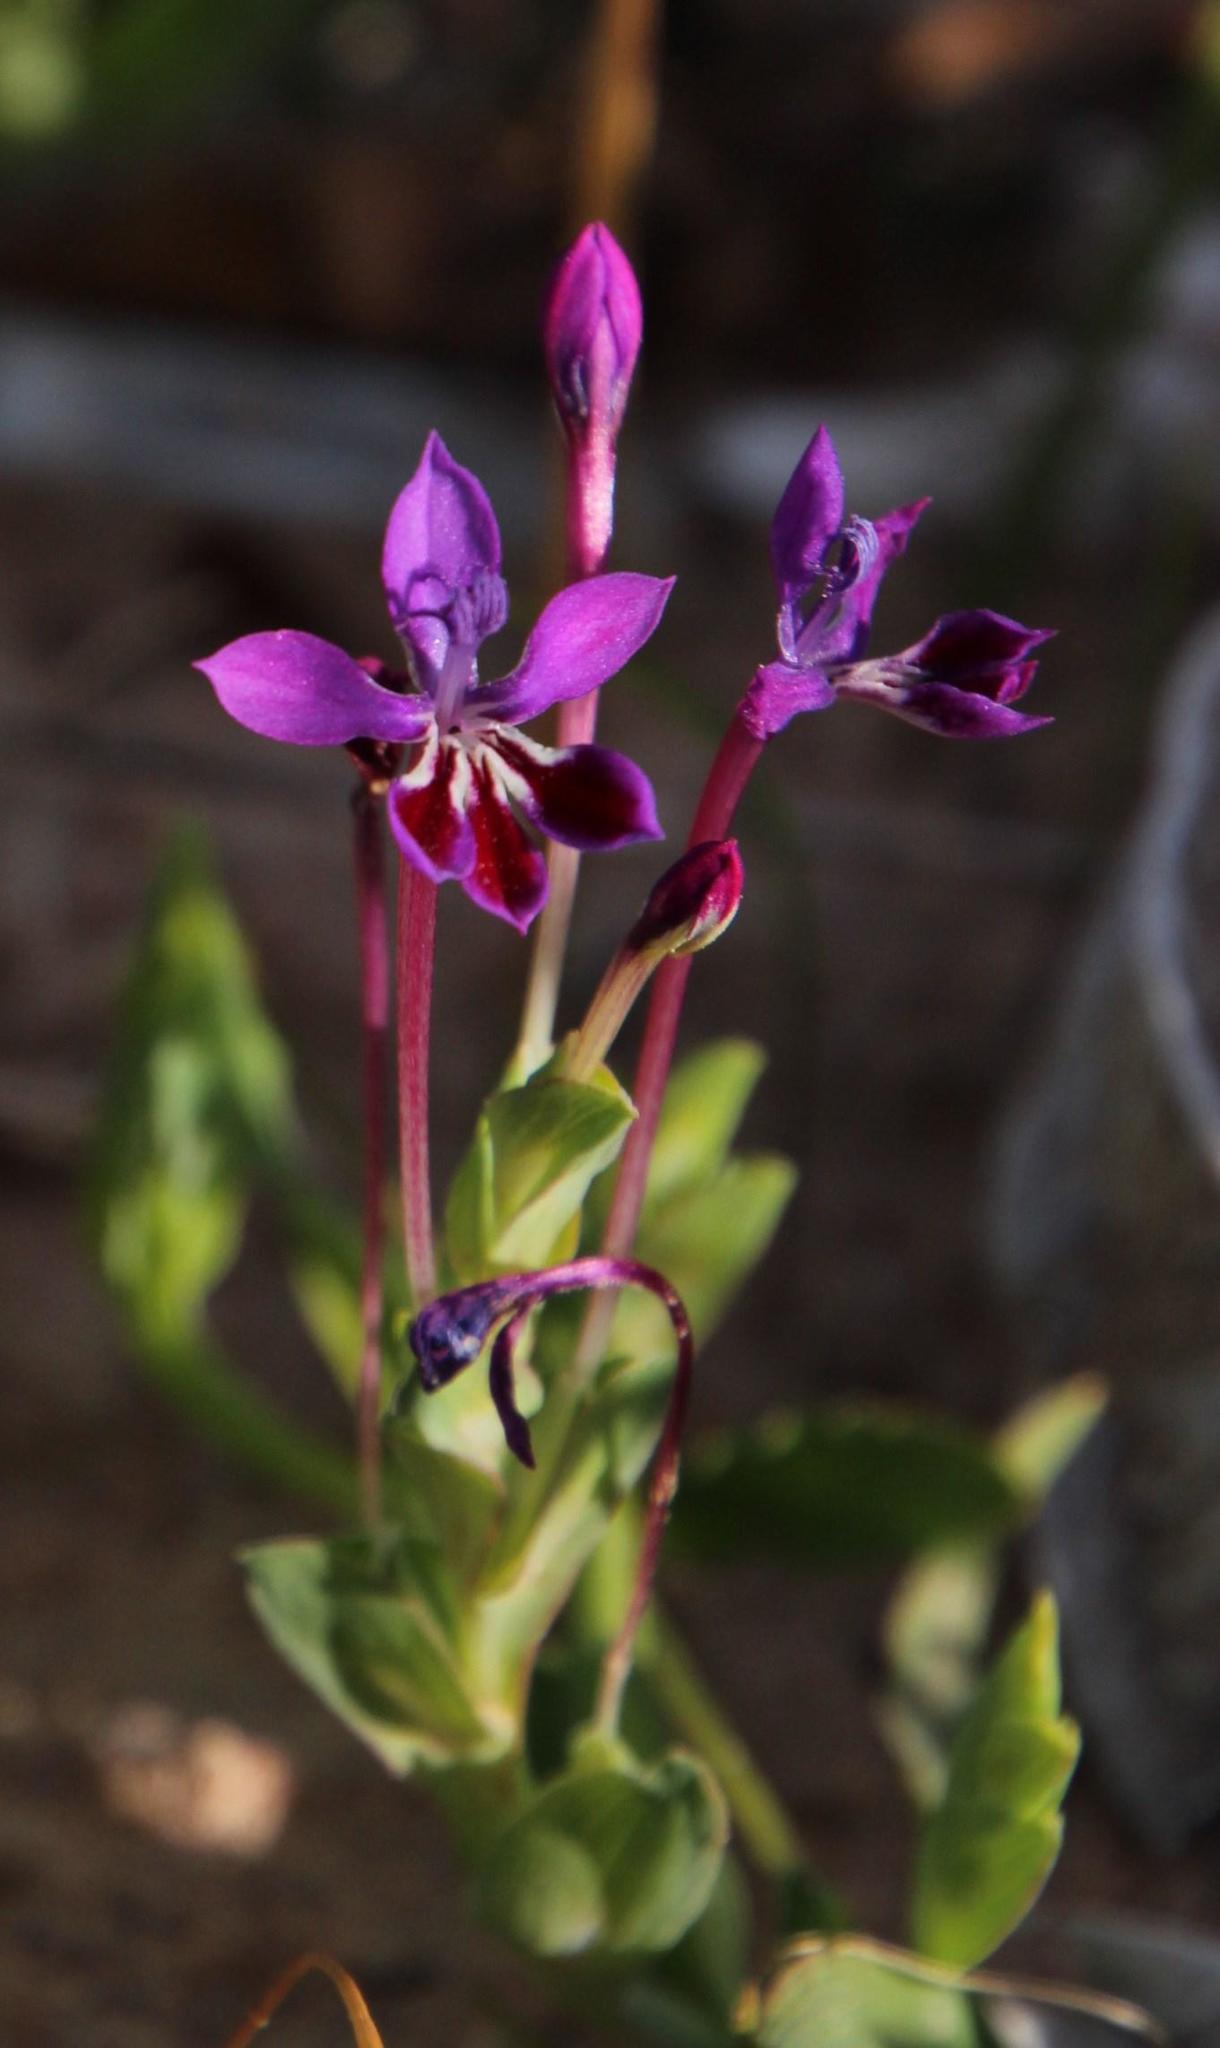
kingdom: Plantae
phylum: Tracheophyta
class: Liliopsida
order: Asparagales
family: Iridaceae
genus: Lapeirousia
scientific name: Lapeirousia jacquinii
